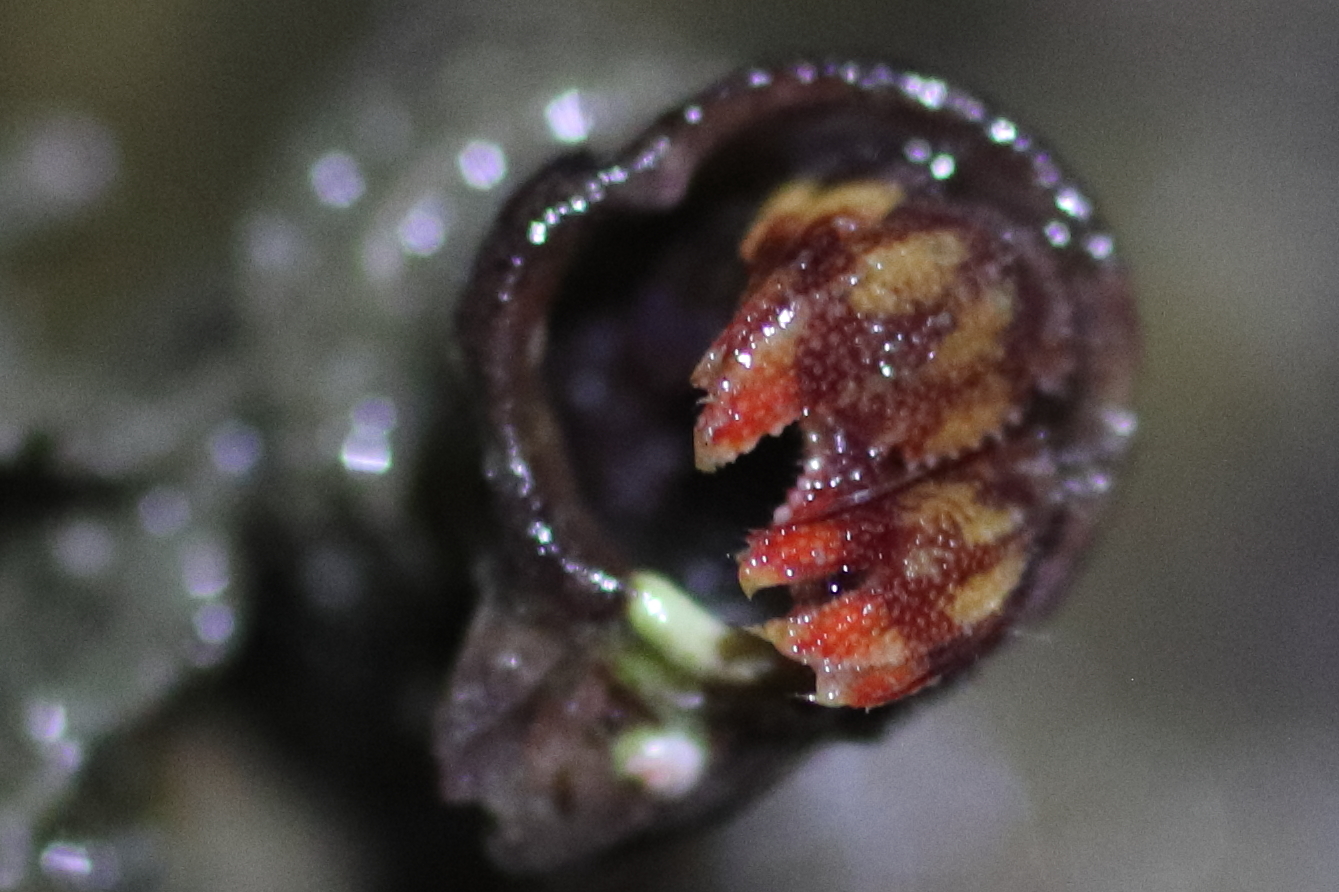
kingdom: Animalia
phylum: Arthropoda
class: Malacostraca
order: Decapoda
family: Paguridae
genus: Discorsopagurus
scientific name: Discorsopagurus schmitti
